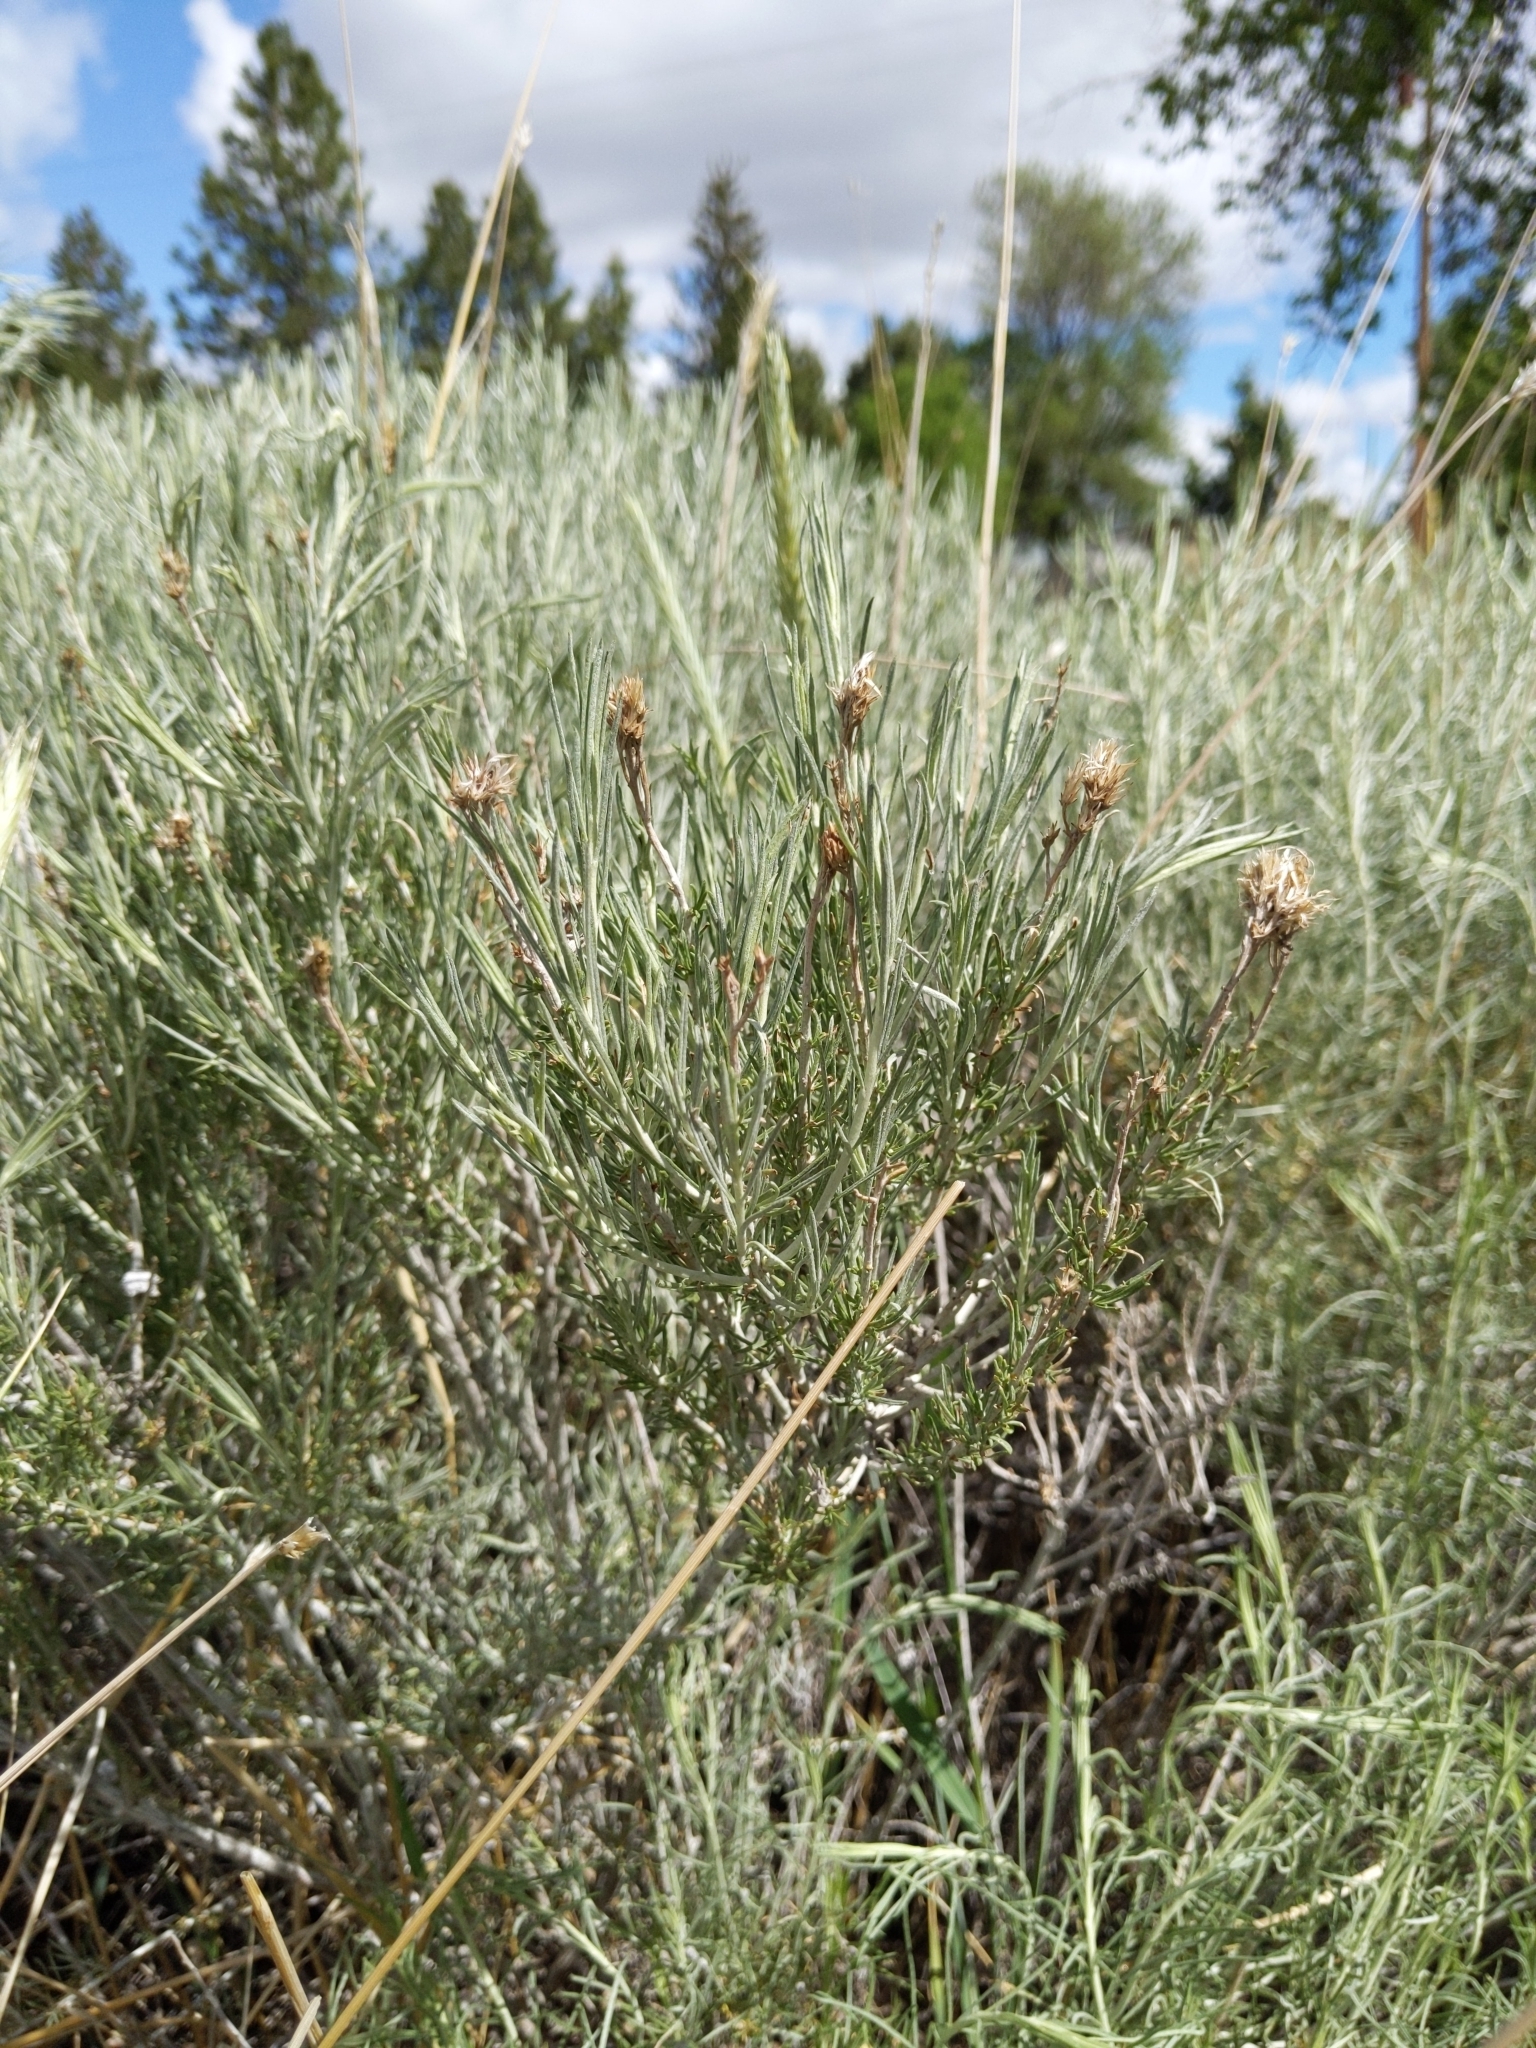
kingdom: Plantae
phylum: Tracheophyta
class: Magnoliopsida
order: Asterales
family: Asteraceae
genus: Ericameria
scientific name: Ericameria nauseosa
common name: Rubber rabbitbrush
